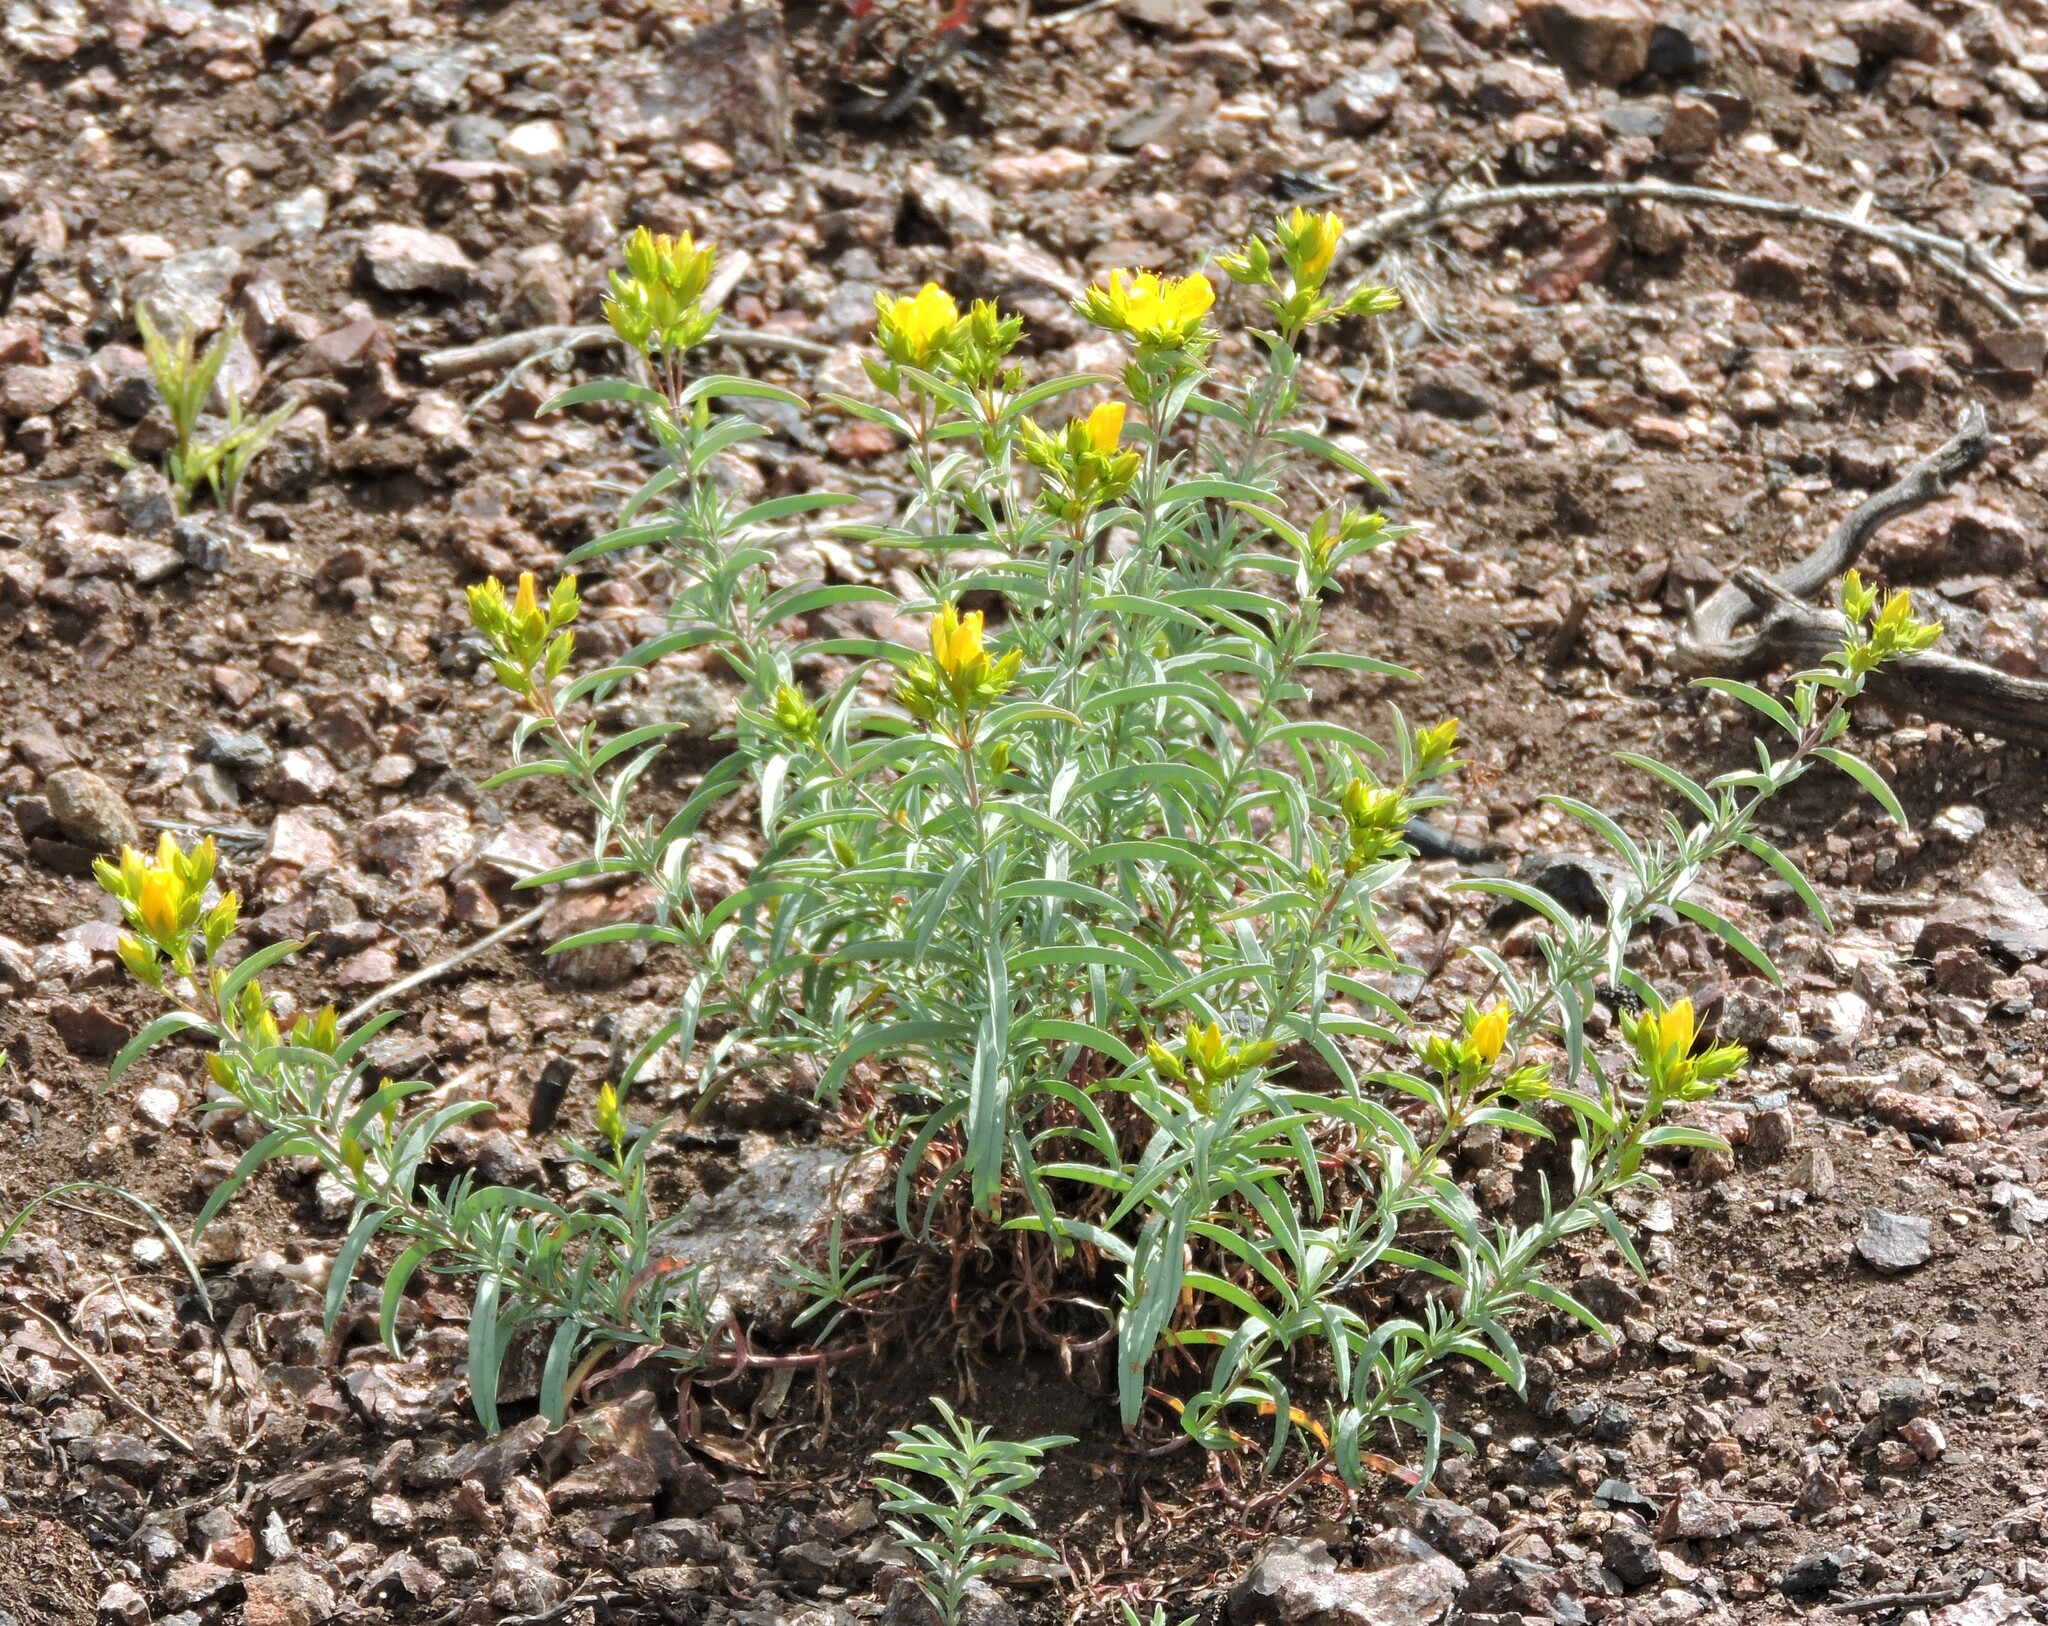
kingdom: Plantae
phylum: Tracheophyta
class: Magnoliopsida
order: Malpighiales
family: Hypericaceae
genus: Hypericum
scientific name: Hypericum concinnum
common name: Gold-wire
